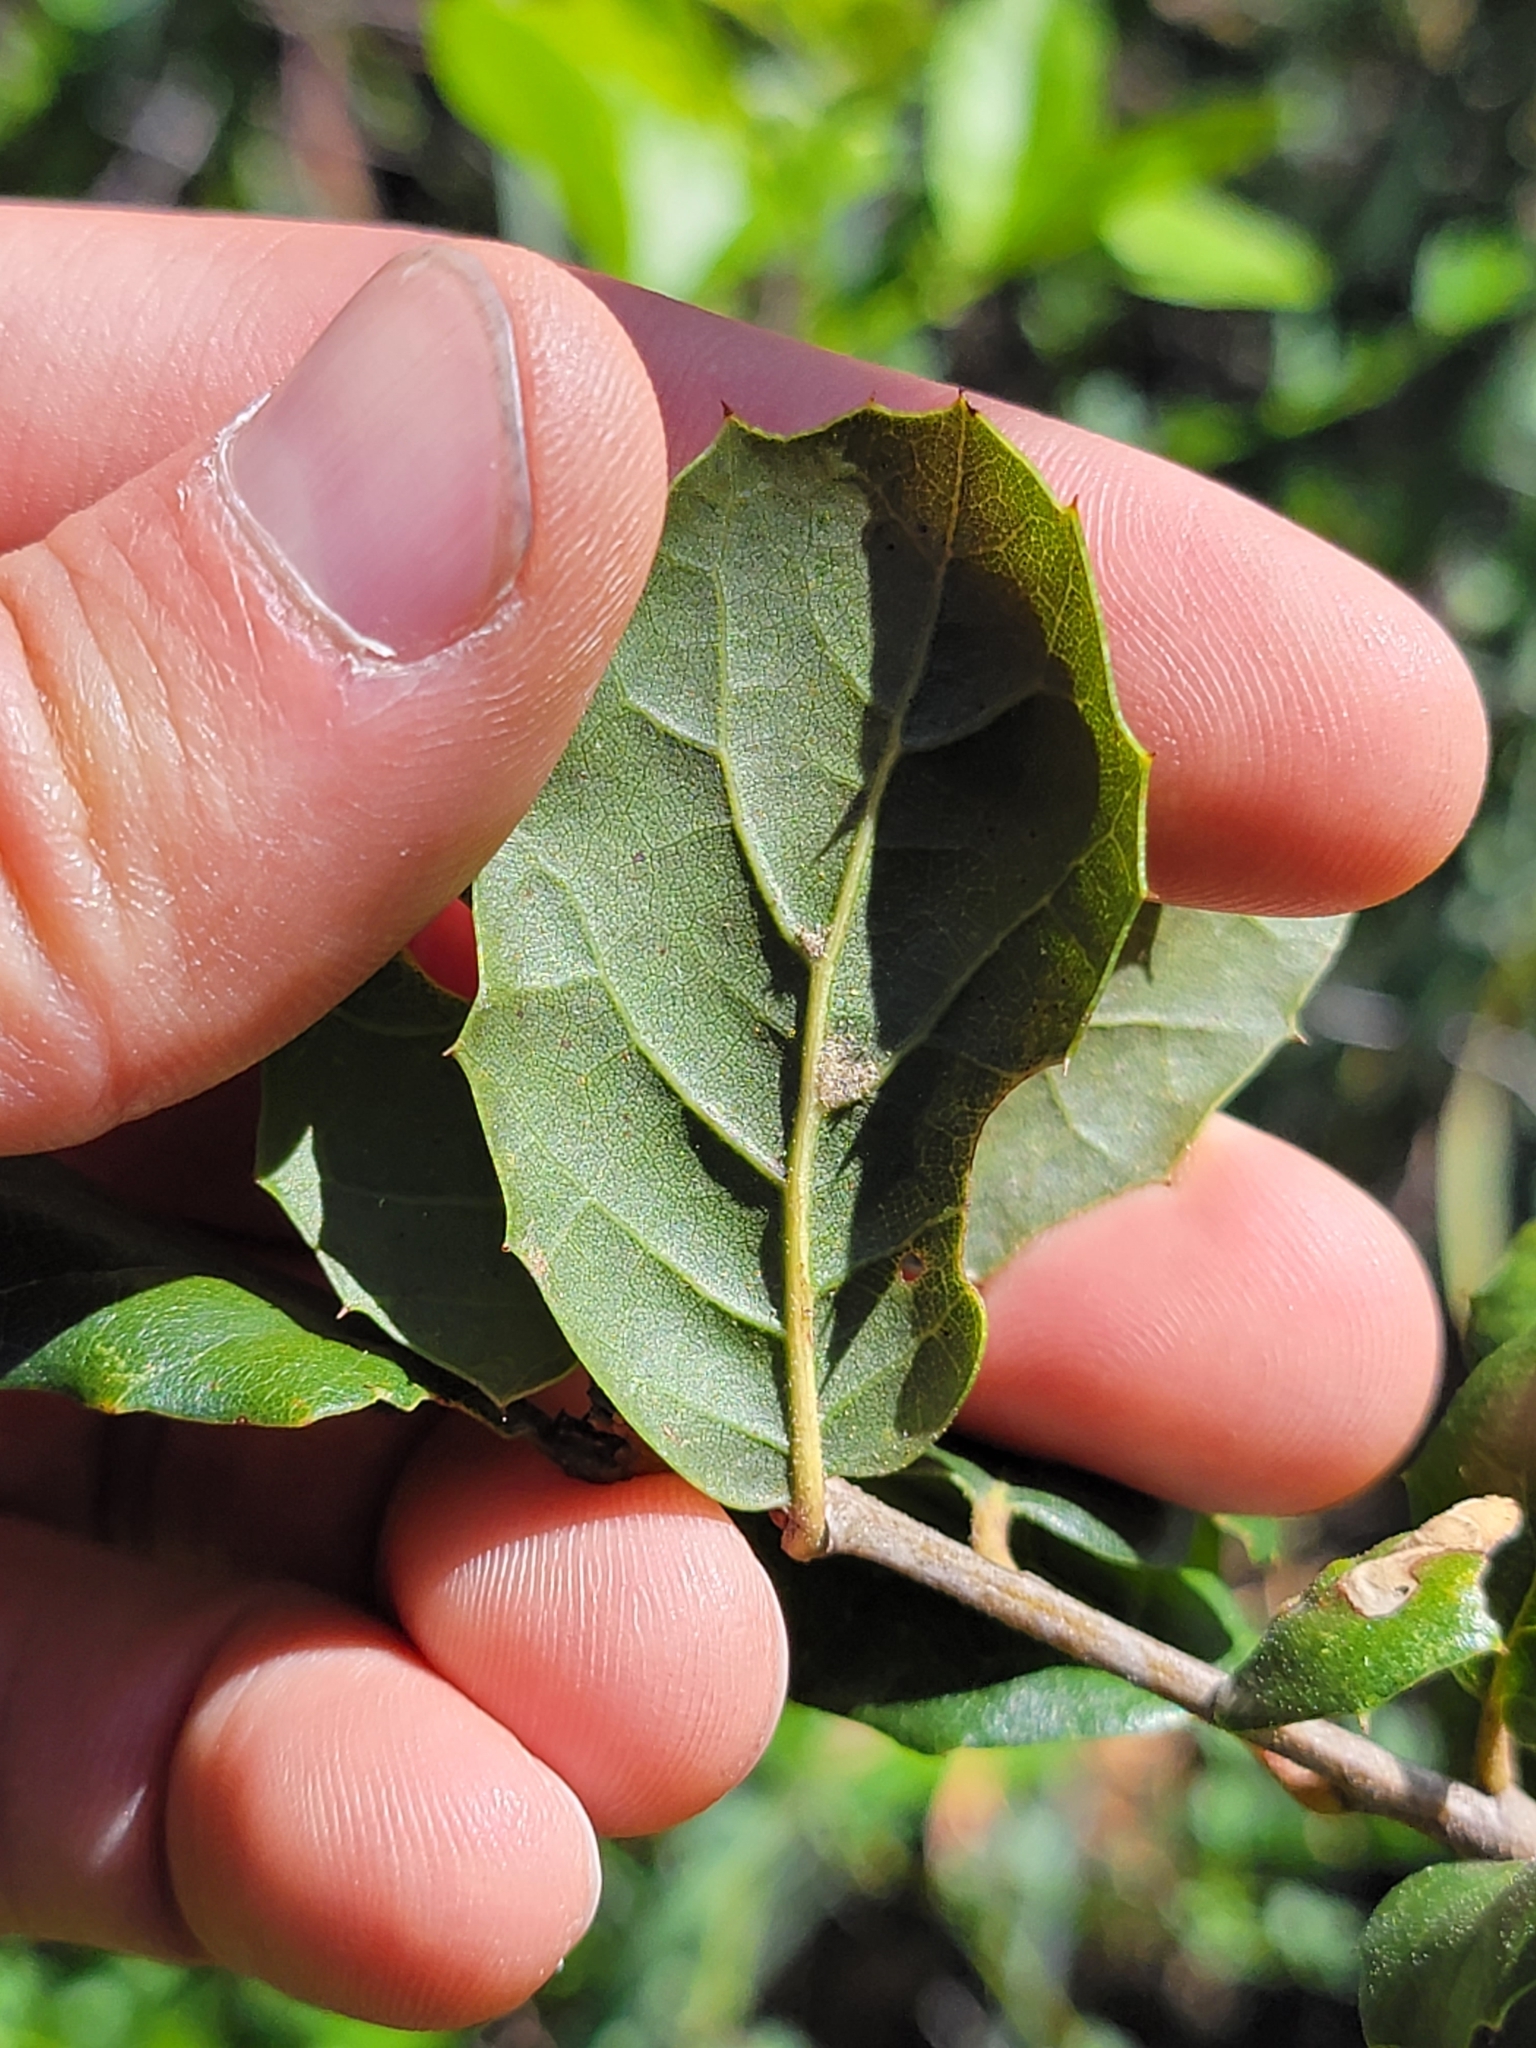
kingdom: Plantae
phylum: Tracheophyta
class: Magnoliopsida
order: Fagales
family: Fagaceae
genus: Quercus
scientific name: Quercus agrifolia
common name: California live oak
